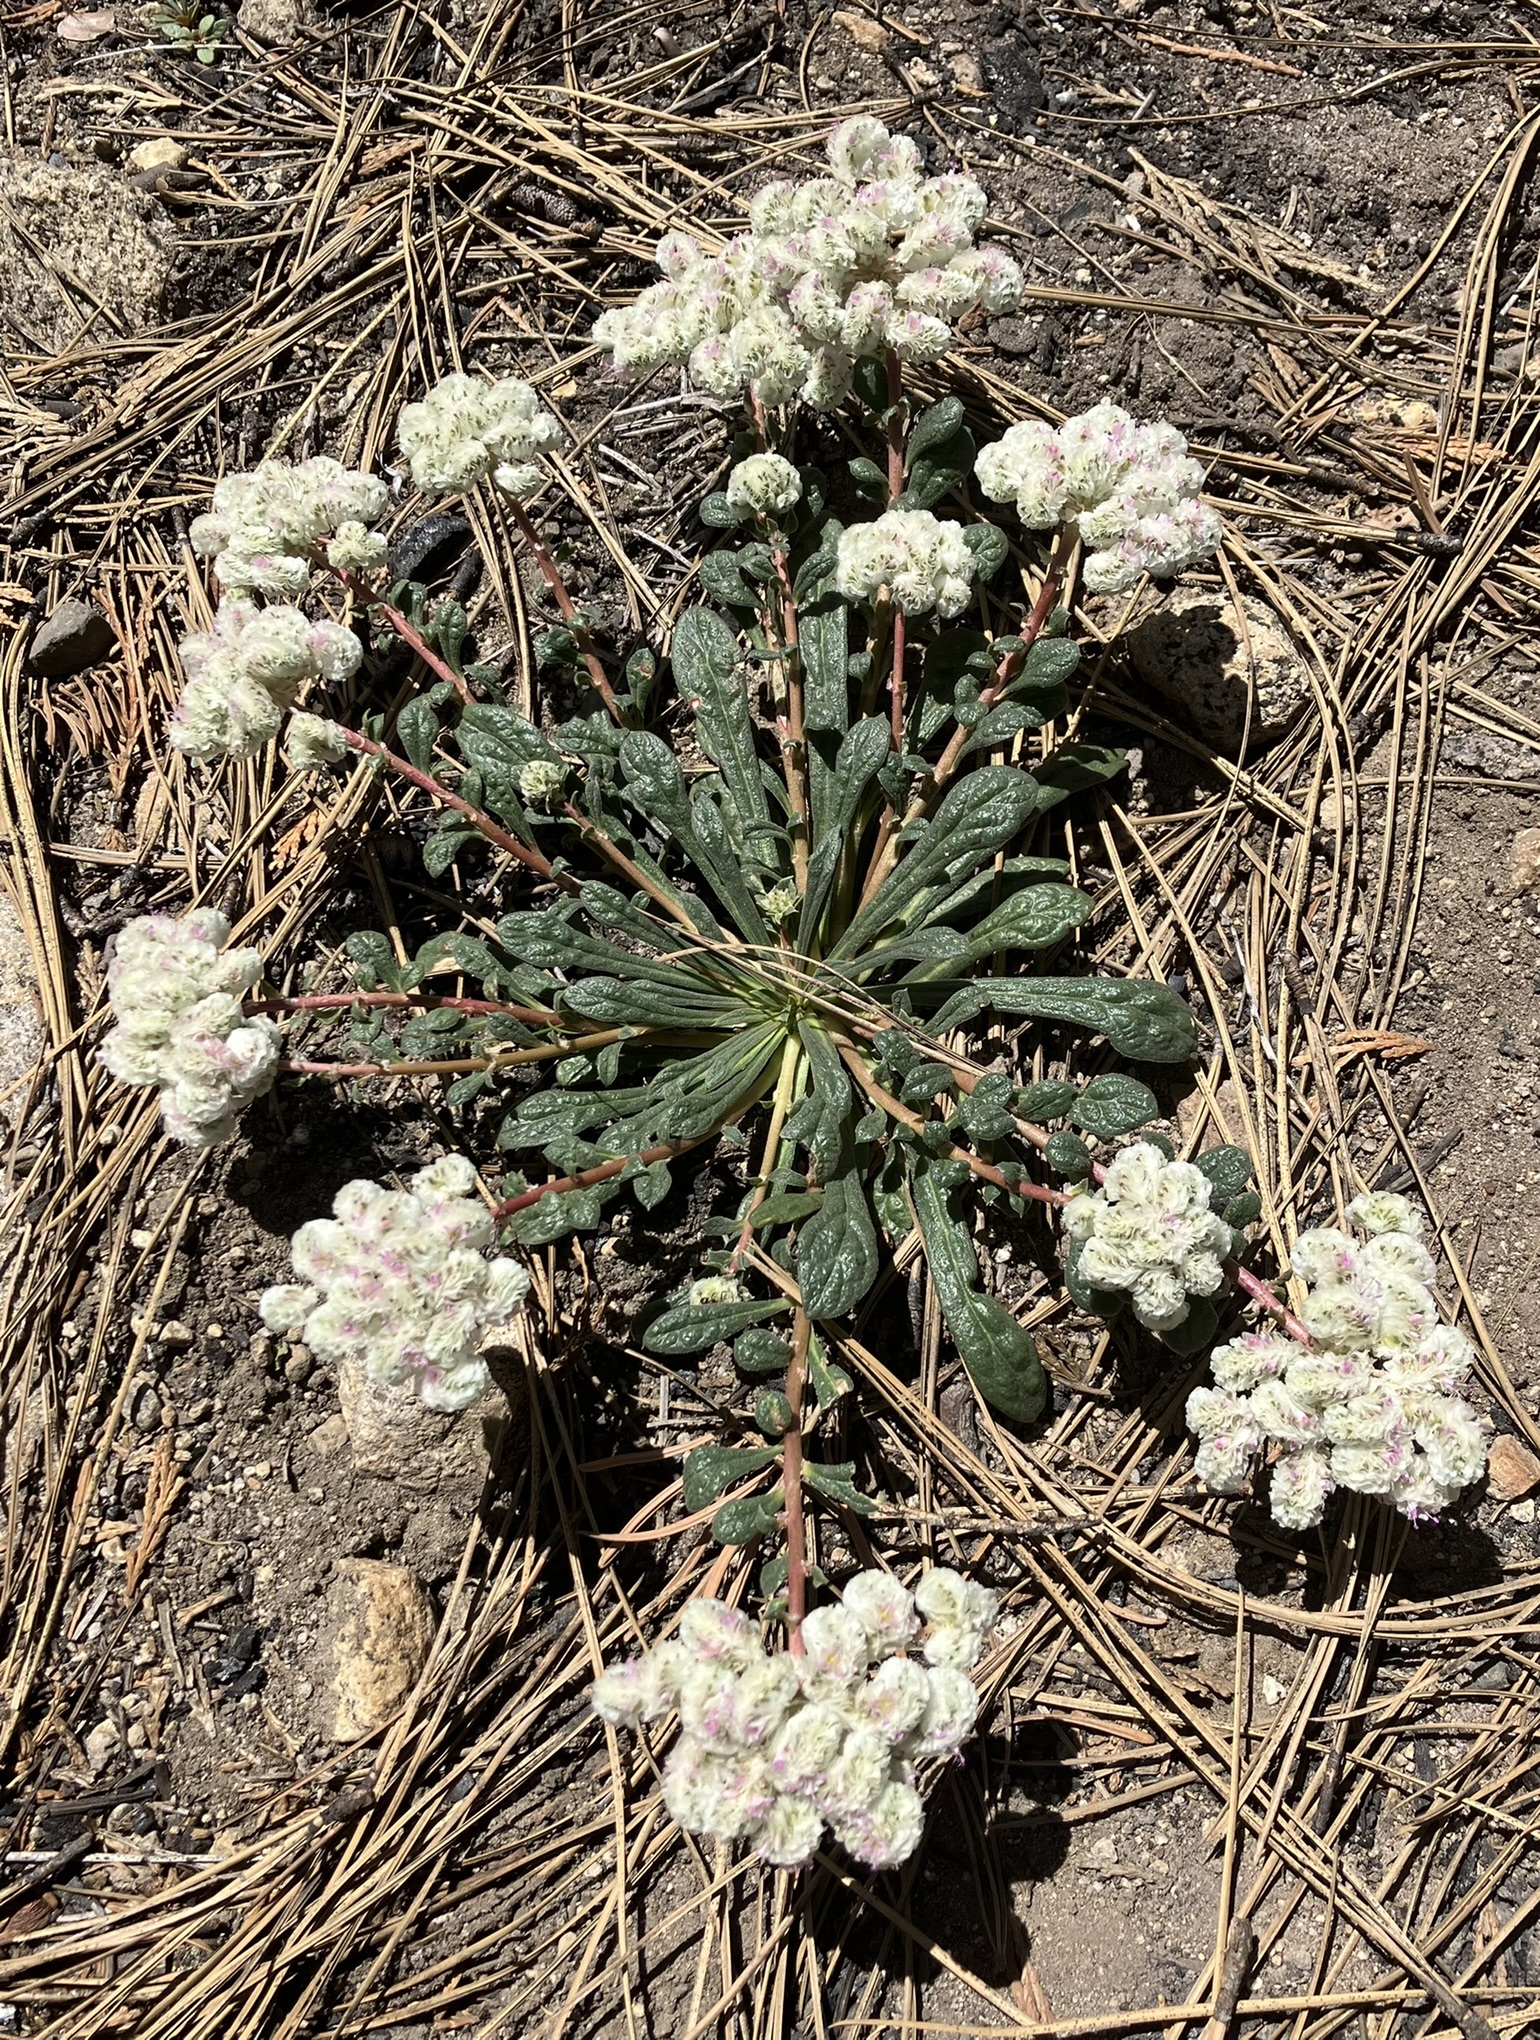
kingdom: Plantae
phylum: Tracheophyta
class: Magnoliopsida
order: Caryophyllales
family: Montiaceae
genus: Calyptridium
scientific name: Calyptridium monospermum
